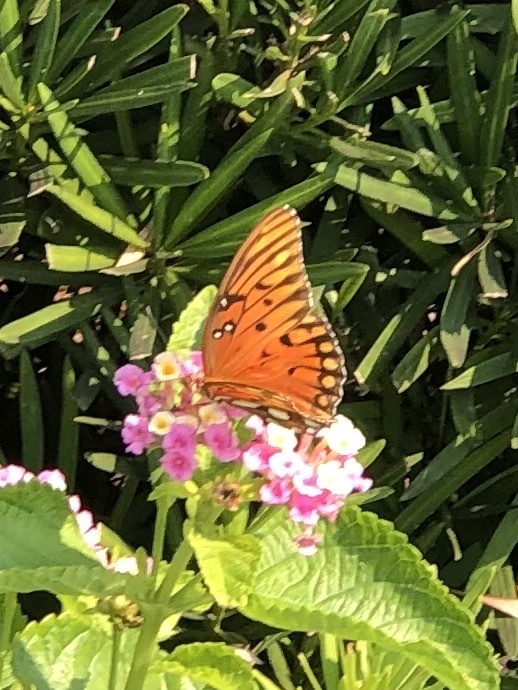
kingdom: Animalia
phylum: Arthropoda
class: Insecta
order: Lepidoptera
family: Nymphalidae
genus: Dione
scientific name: Dione vanillae
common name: Gulf fritillary
